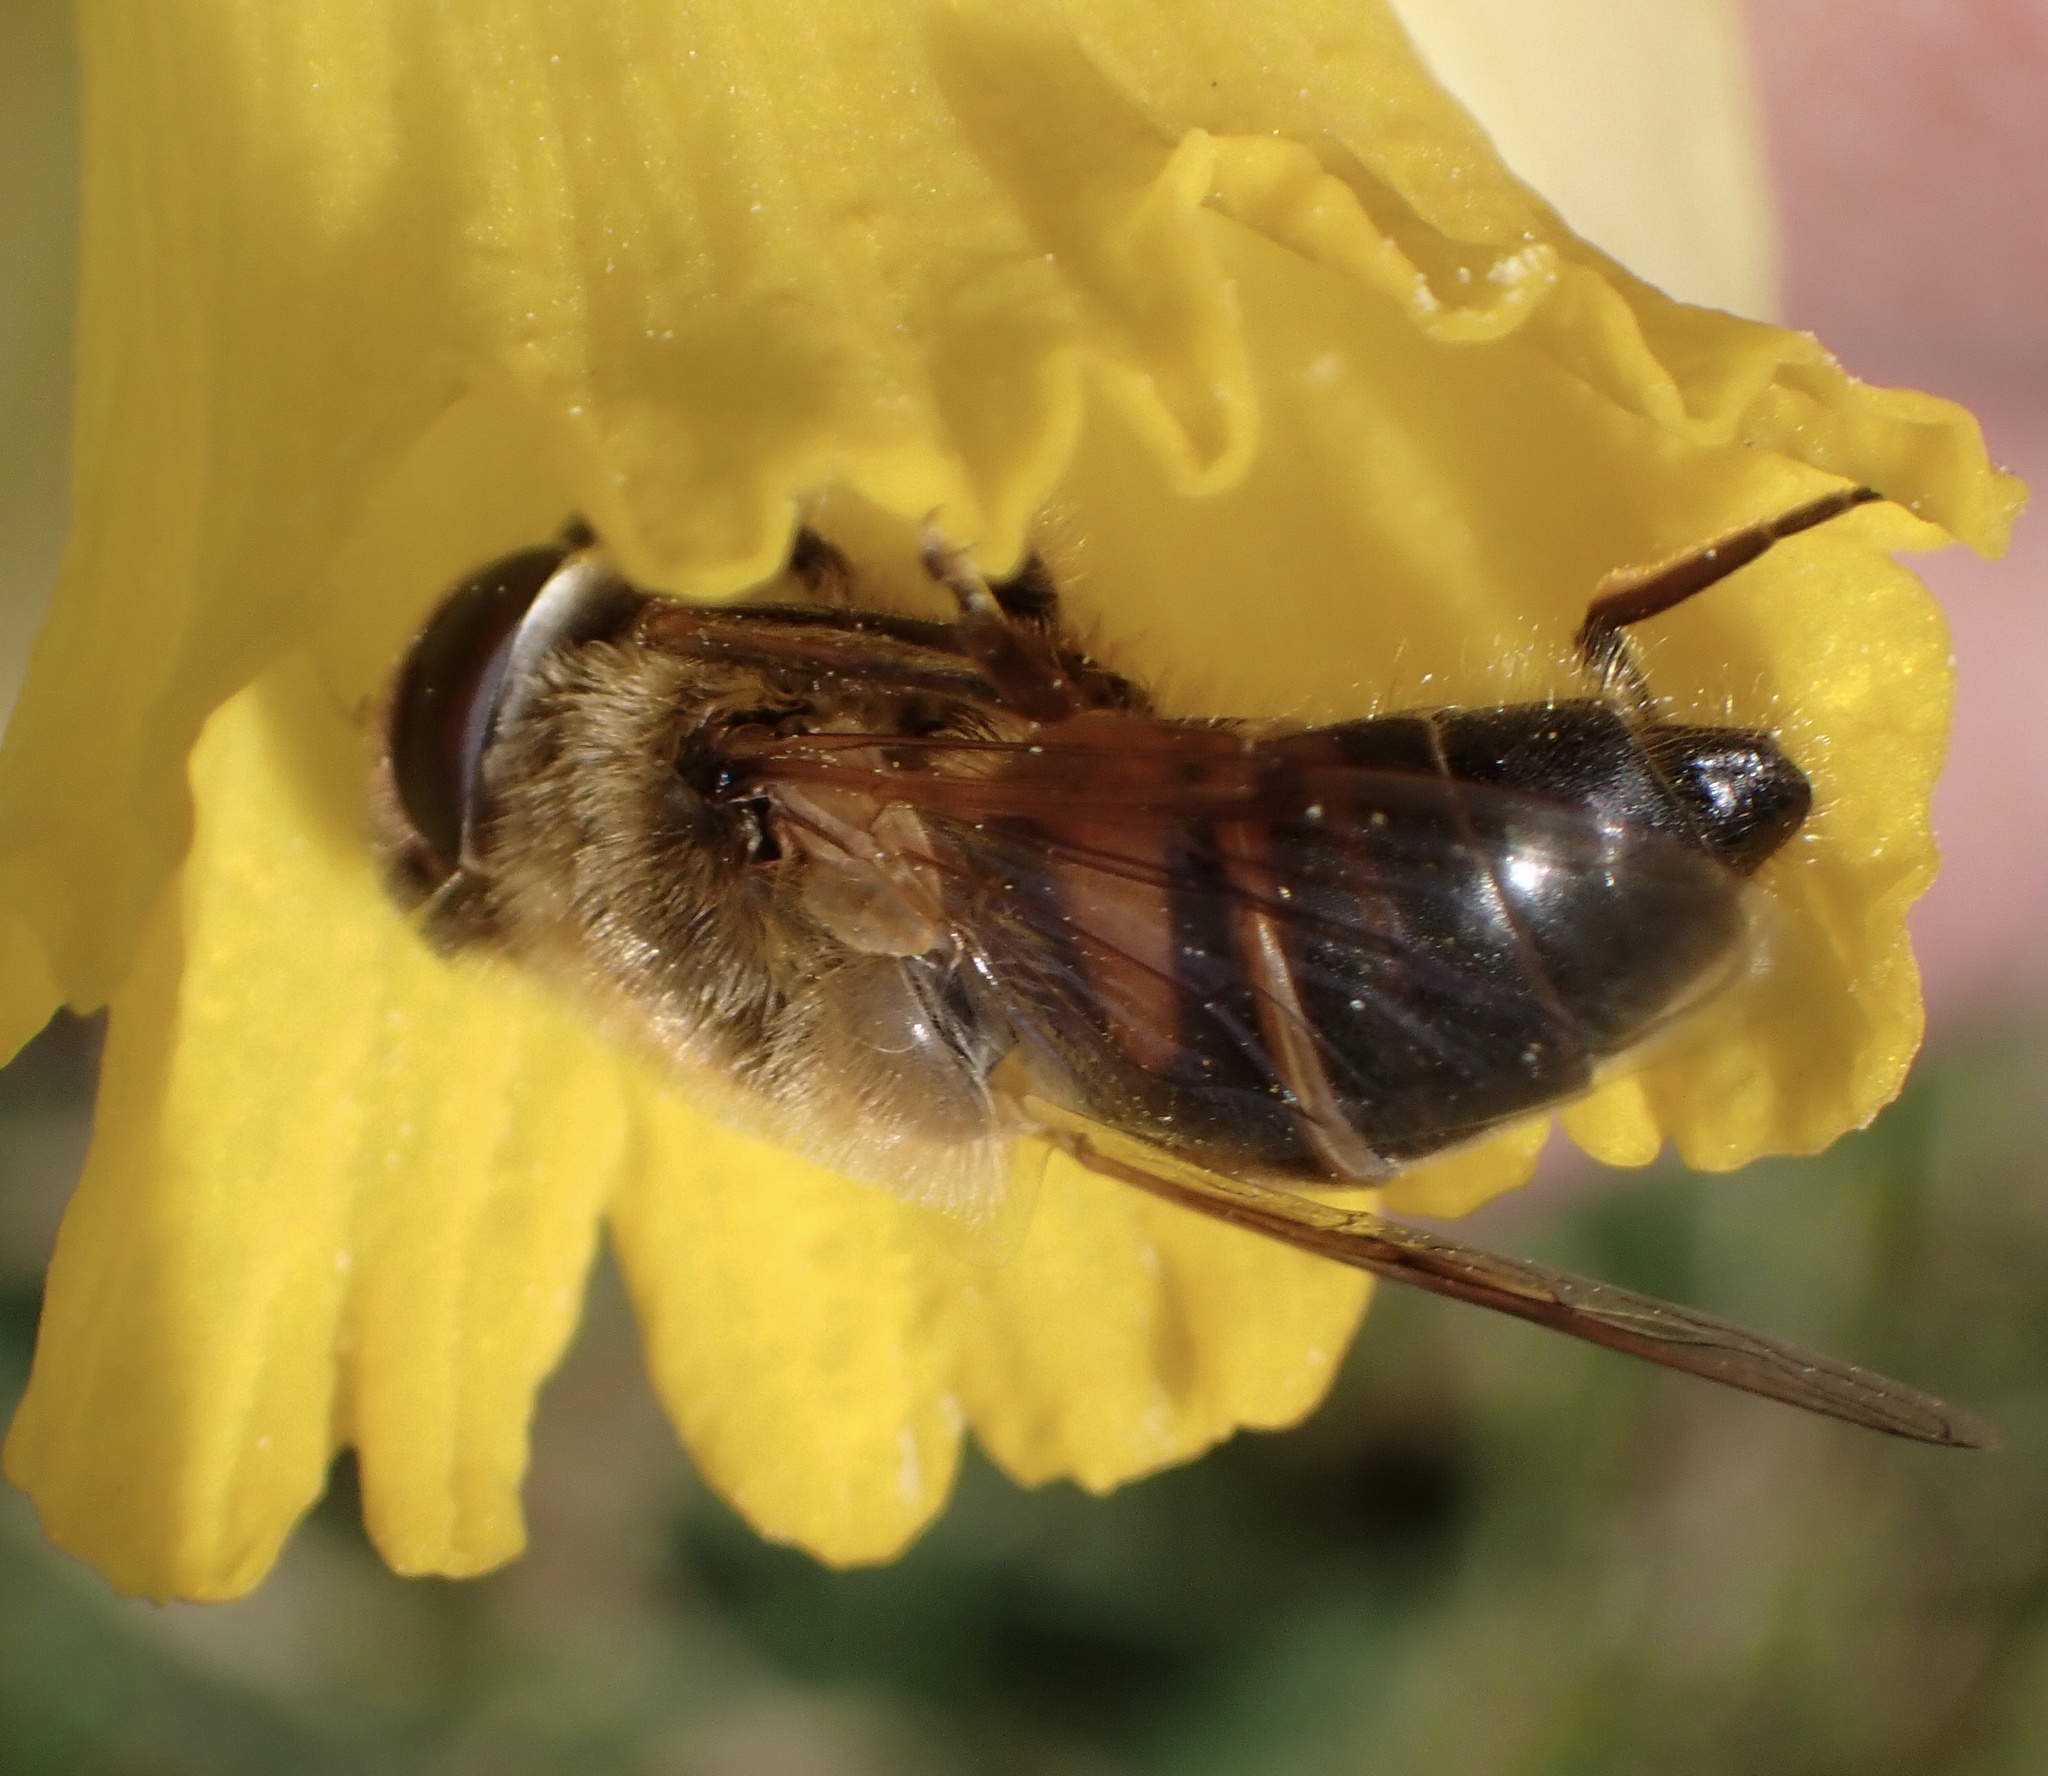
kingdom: Animalia
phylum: Arthropoda
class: Insecta
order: Diptera
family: Syrphidae
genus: Eristalis
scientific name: Eristalis tenax
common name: Drone fly
